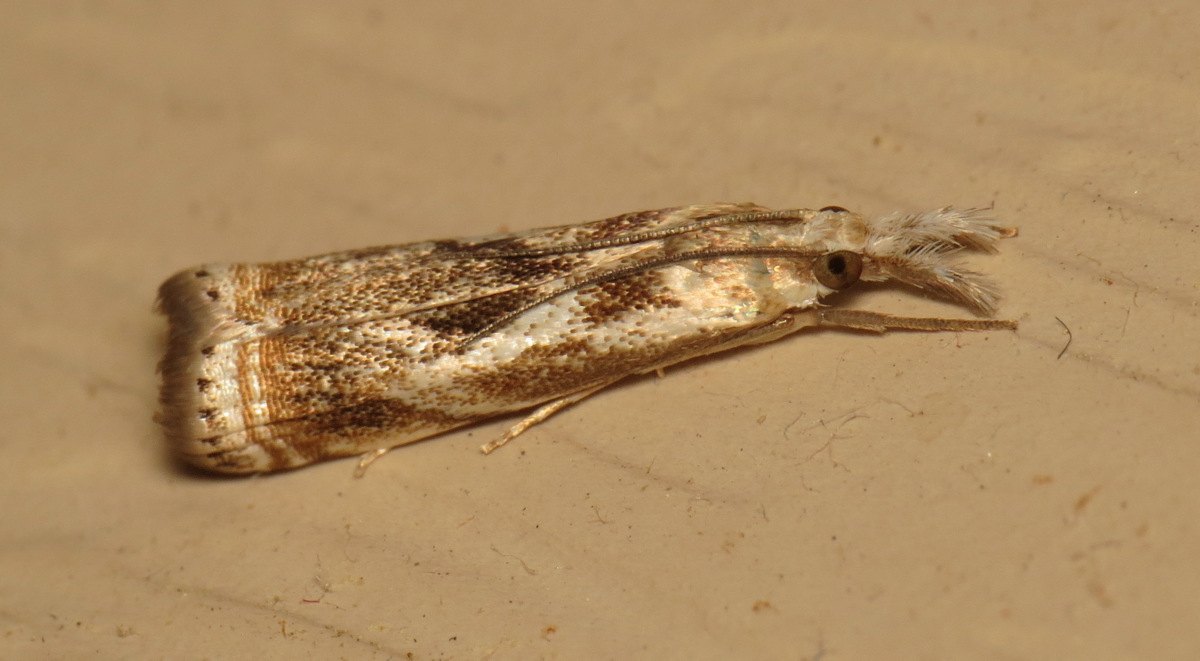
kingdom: Animalia
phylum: Arthropoda
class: Insecta
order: Lepidoptera
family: Crambidae
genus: Microcrambus
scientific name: Microcrambus elegans
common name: Elegant grass-veneer
